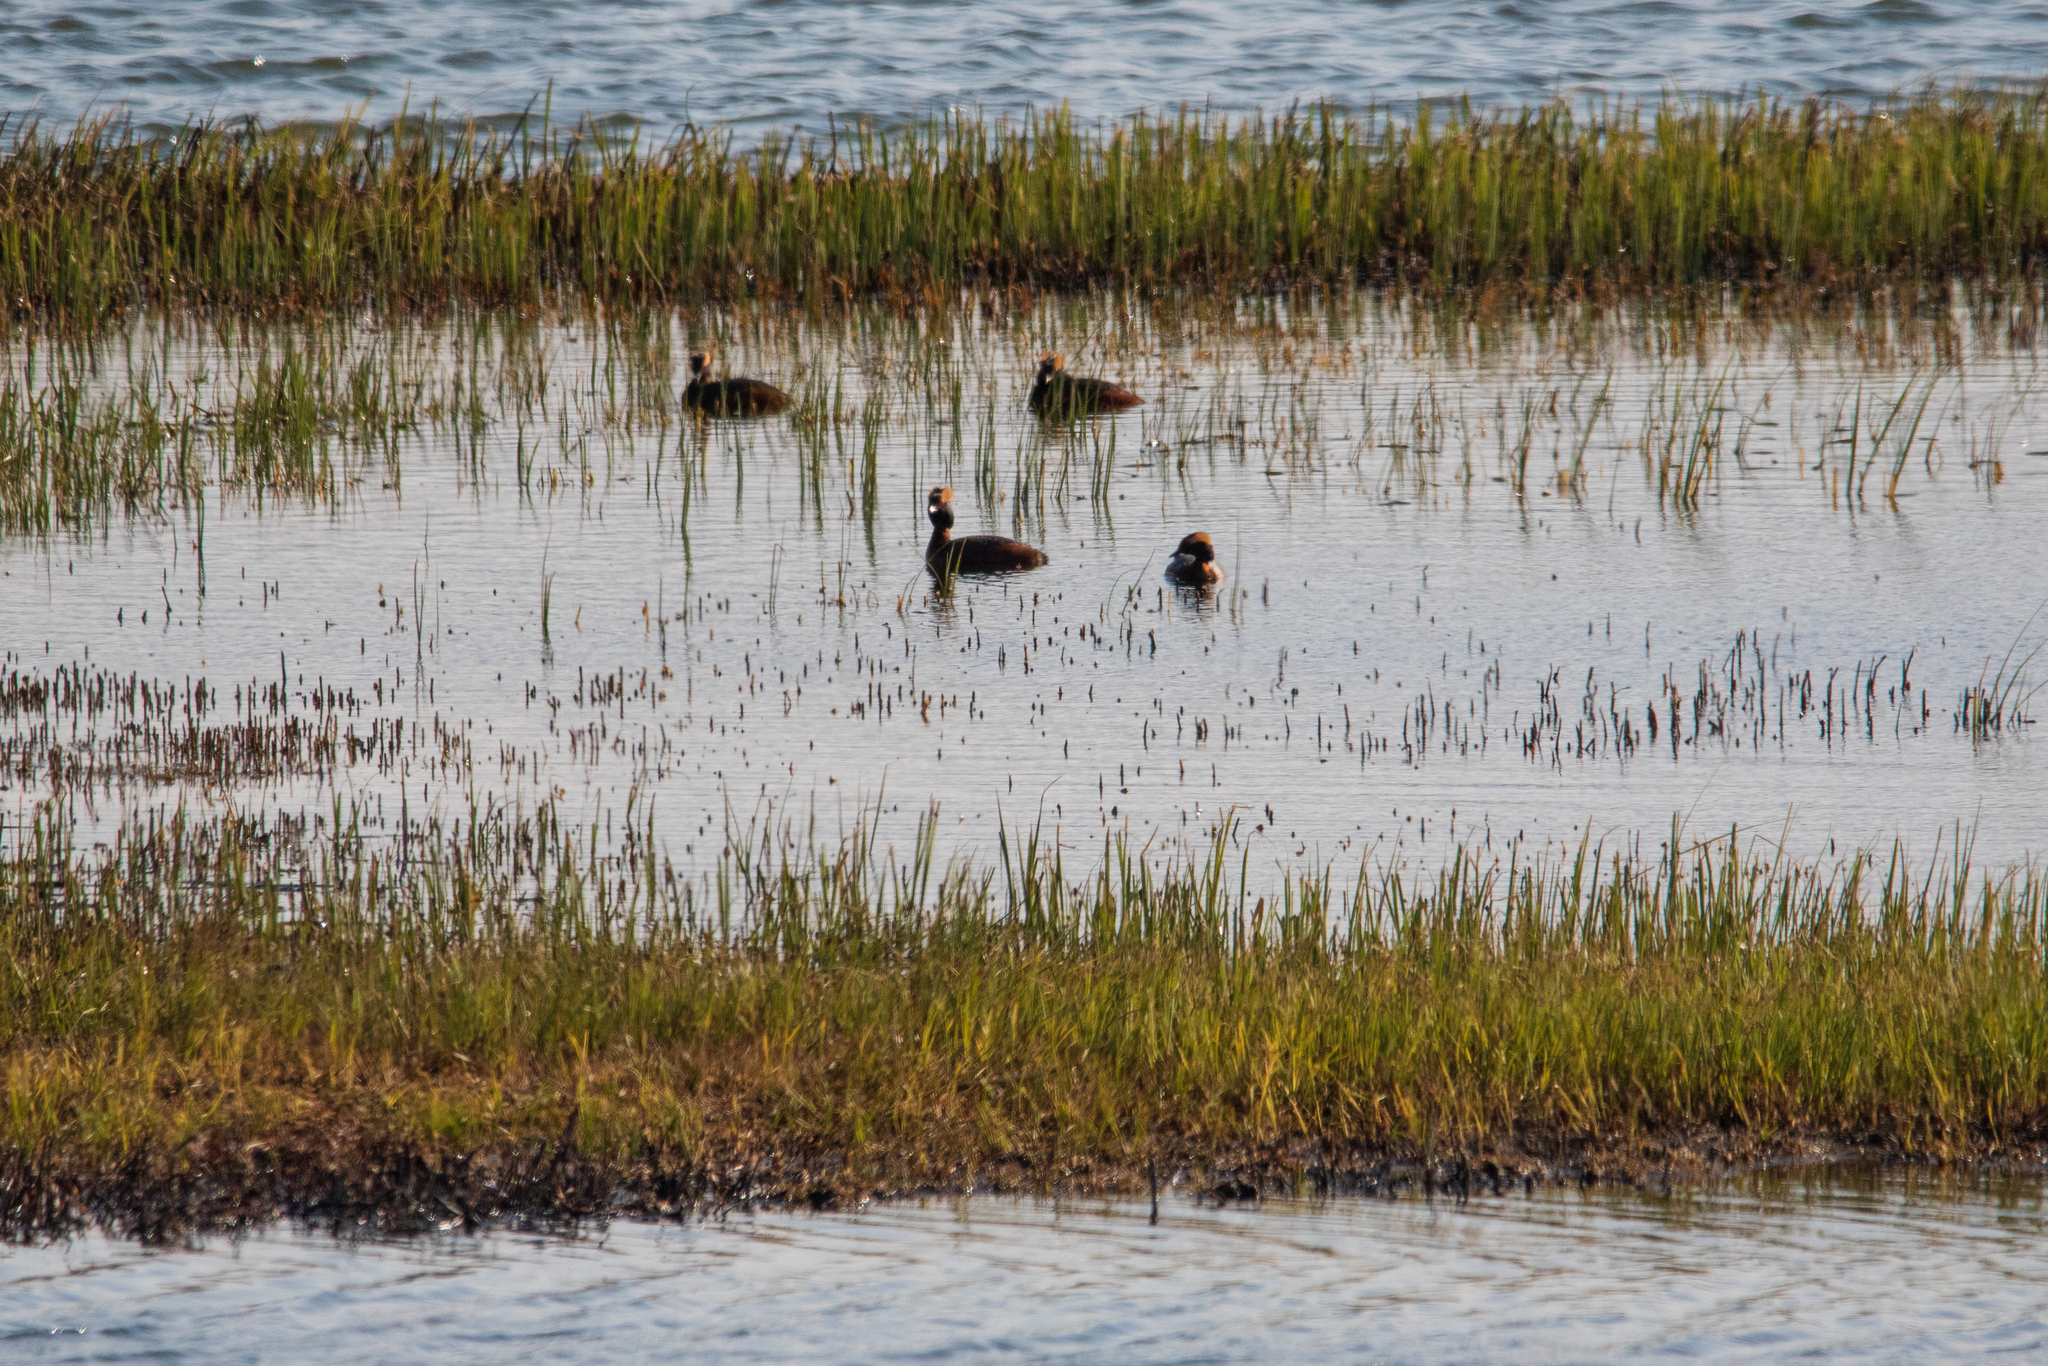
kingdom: Animalia
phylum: Chordata
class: Aves
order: Podicipediformes
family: Podicipedidae
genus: Podiceps
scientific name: Podiceps auritus
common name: Horned grebe
